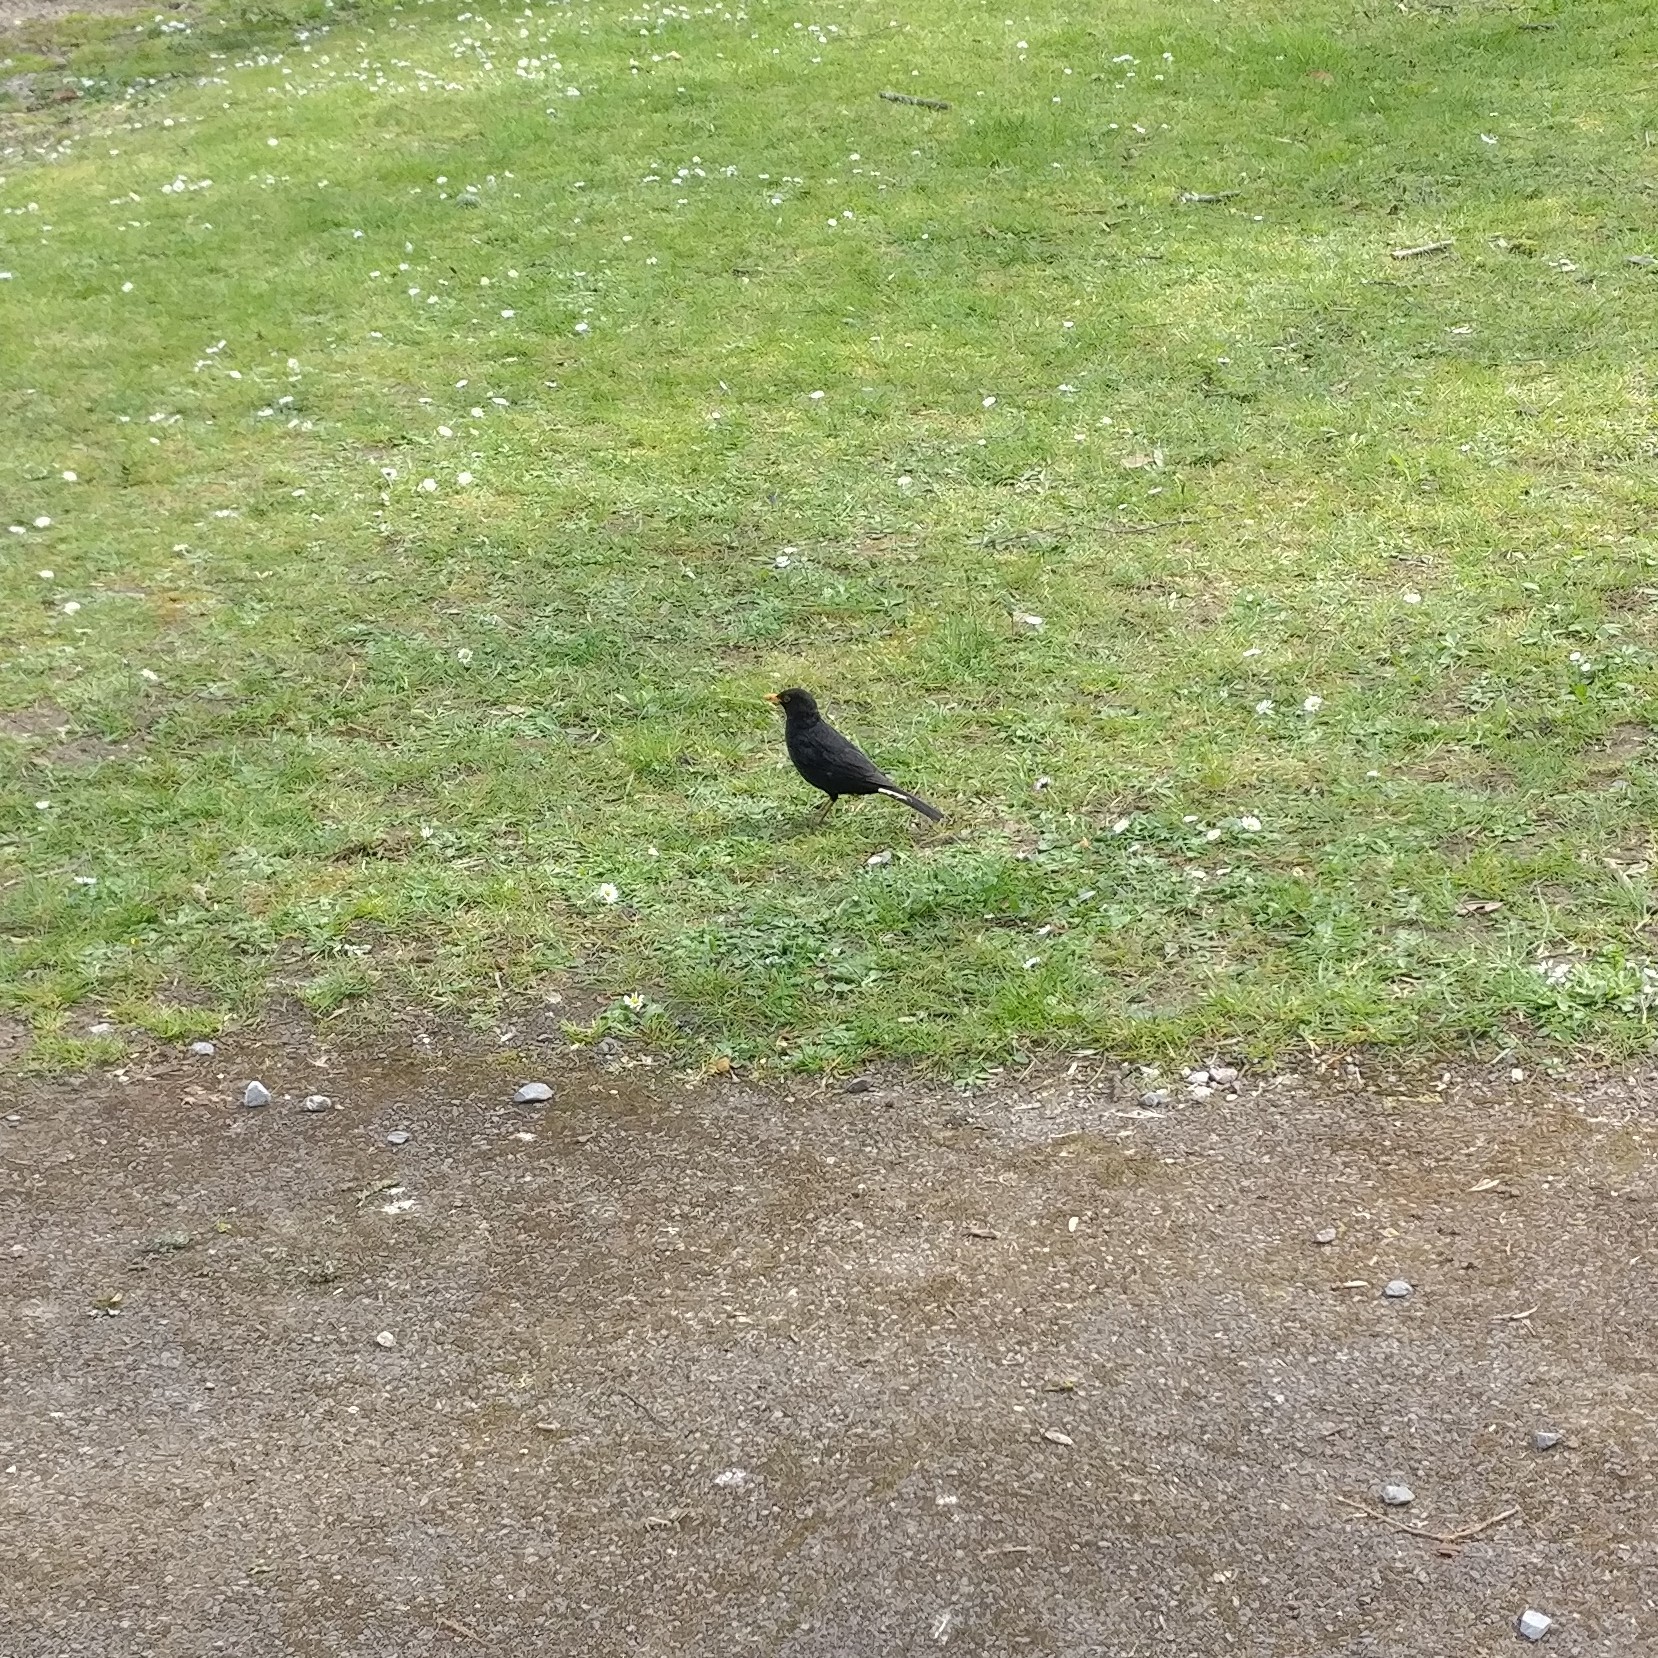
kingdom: Animalia
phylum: Chordata
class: Aves
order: Passeriformes
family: Turdidae
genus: Turdus
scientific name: Turdus merula
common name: Common blackbird
